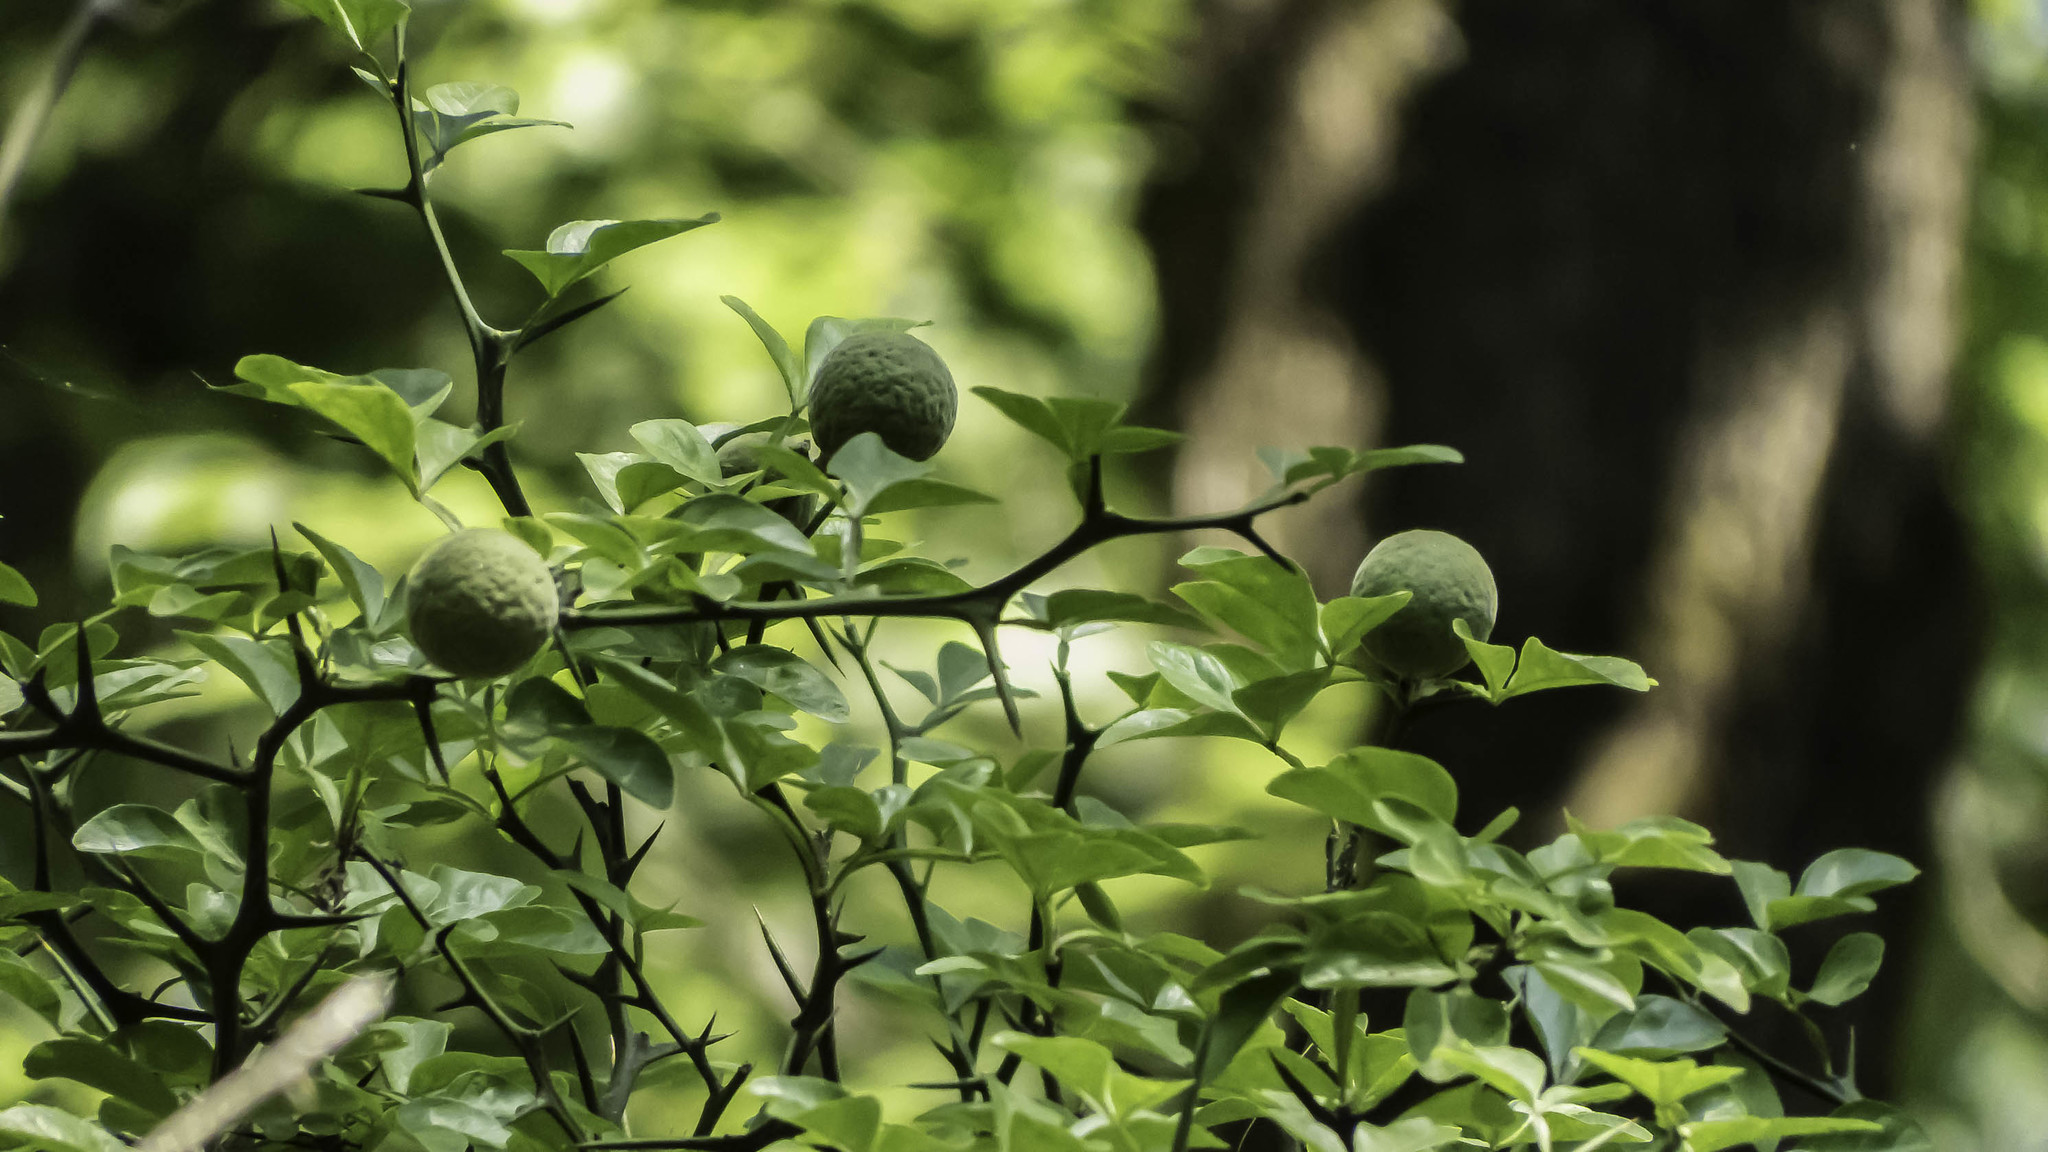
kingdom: Plantae
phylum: Tracheophyta
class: Magnoliopsida
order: Sapindales
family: Rutaceae
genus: Citrus
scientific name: Citrus trifoliata
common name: Japanese bitter-orange
